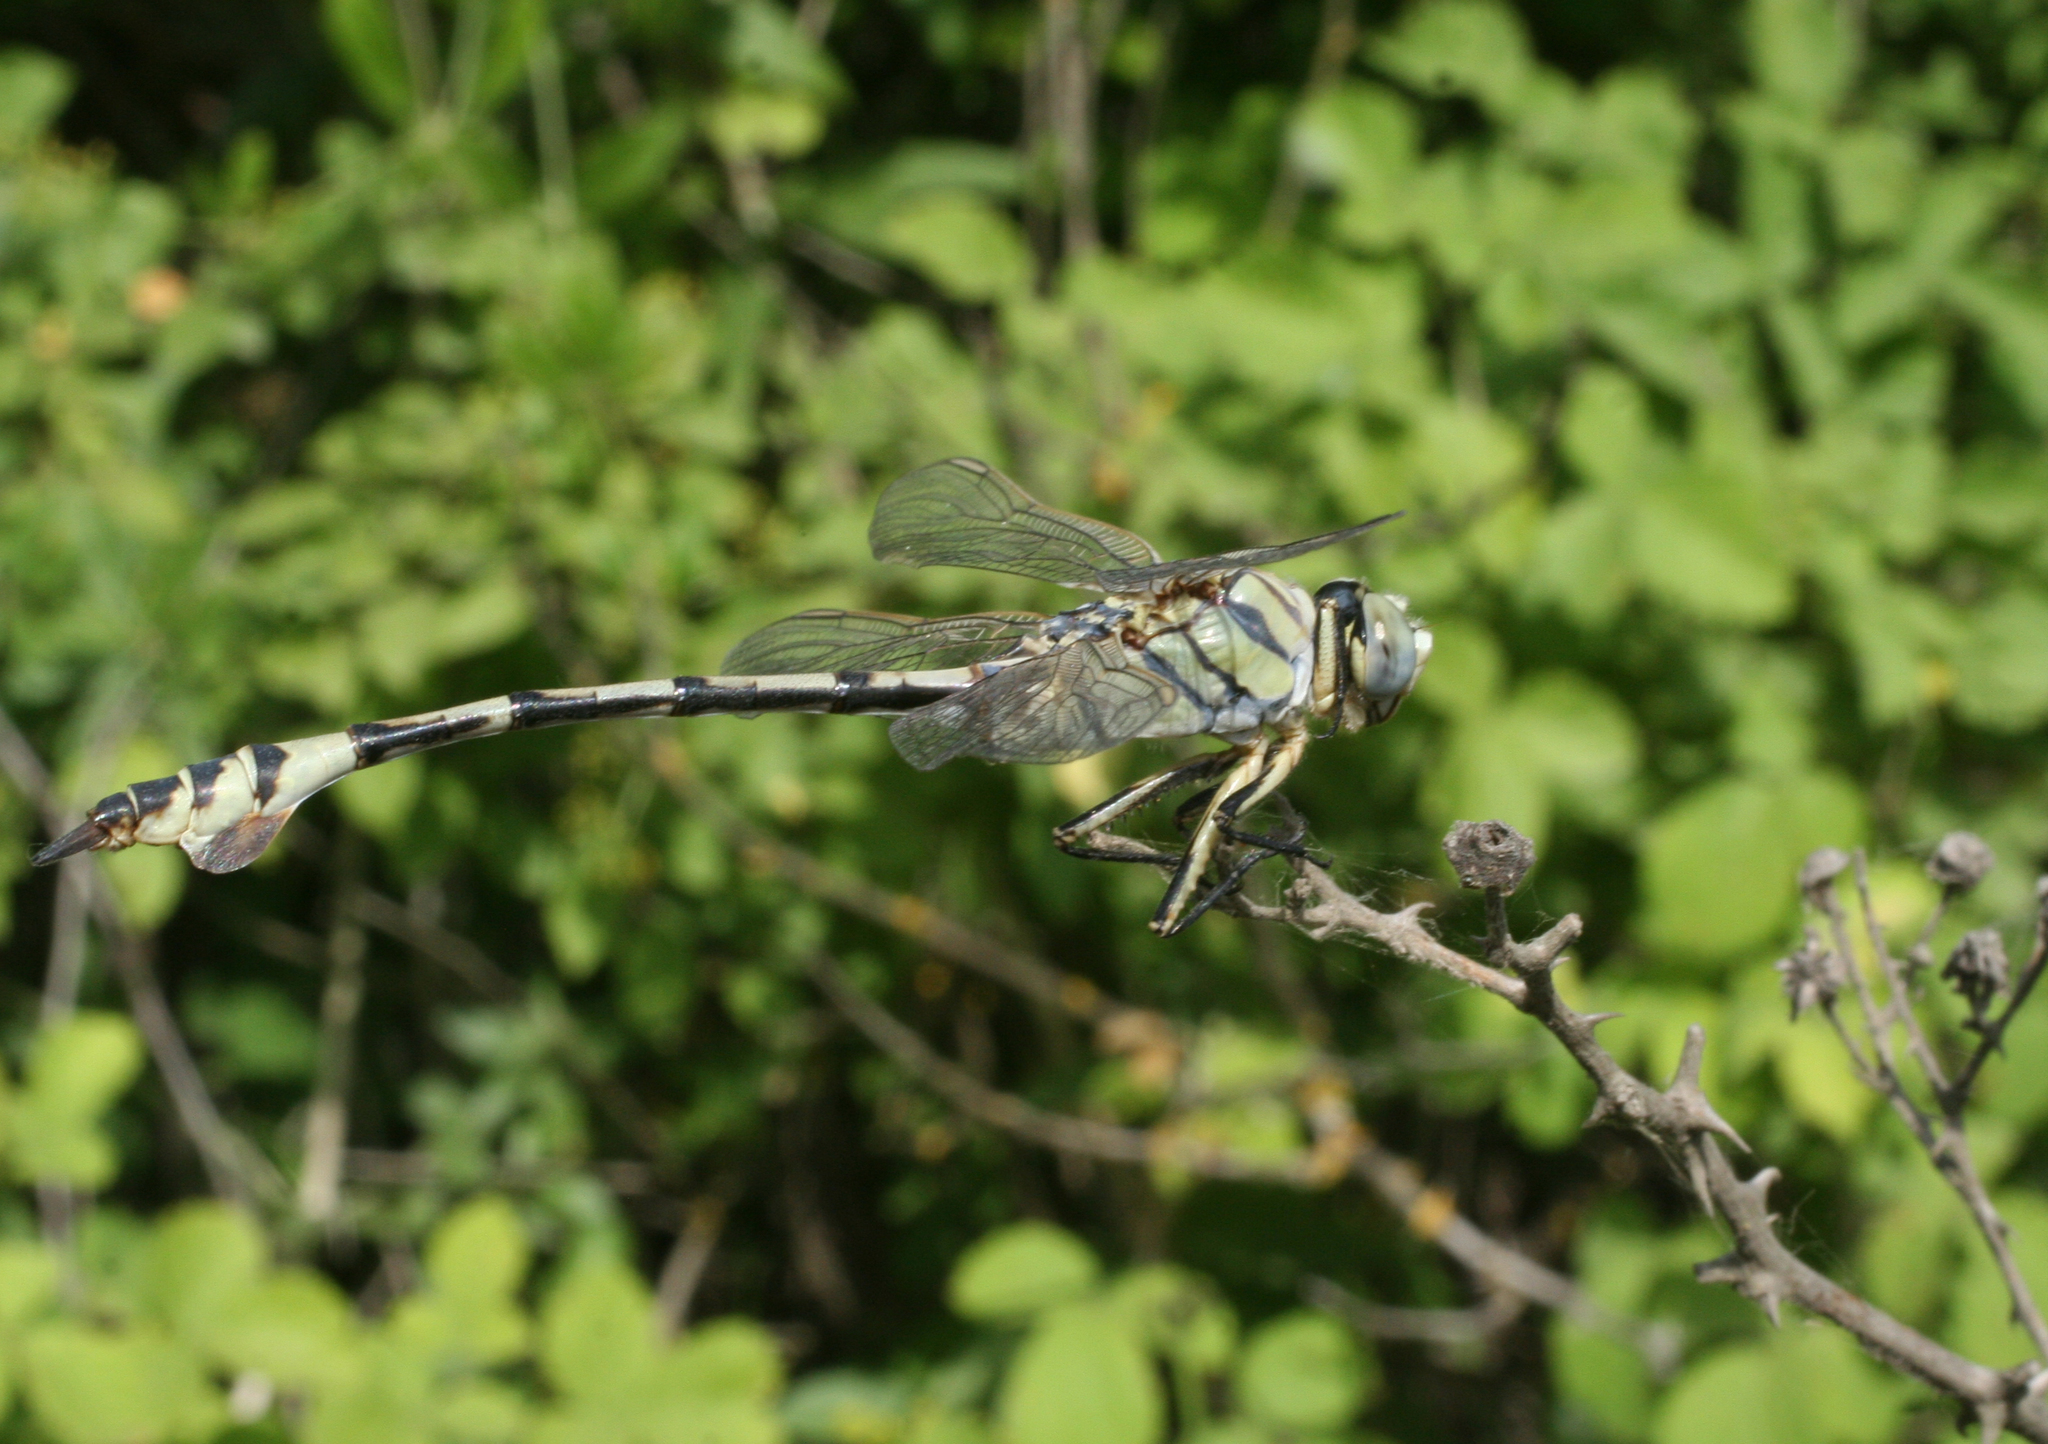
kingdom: Animalia
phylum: Arthropoda
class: Insecta
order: Odonata
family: Gomphidae
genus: Lindenia
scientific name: Lindenia tetraphylla
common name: Bladetail
